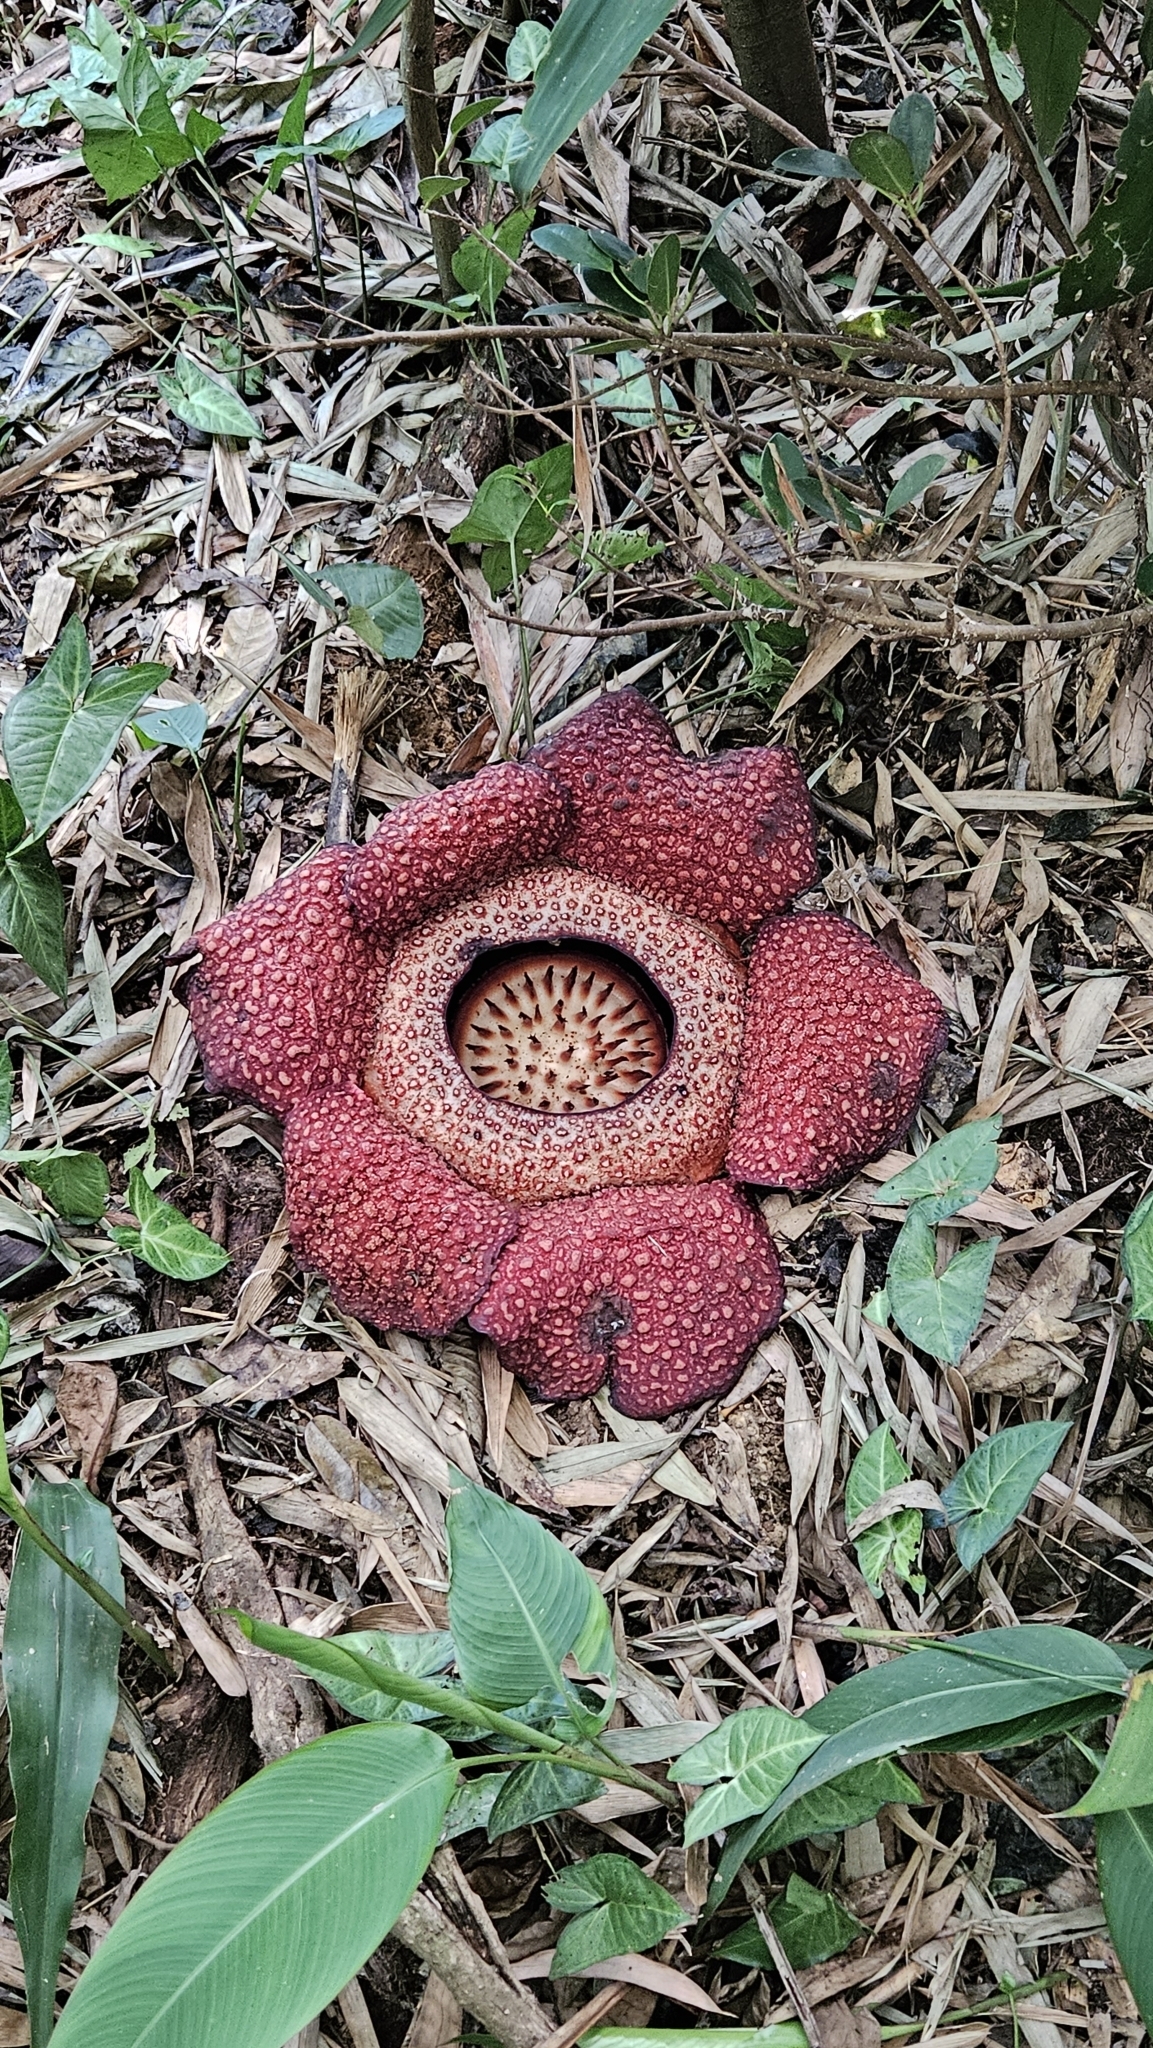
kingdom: Plantae
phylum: Tracheophyta
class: Magnoliopsida
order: Malpighiales
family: Rafflesiaceae
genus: Rafflesia
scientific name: Rafflesia keithii
